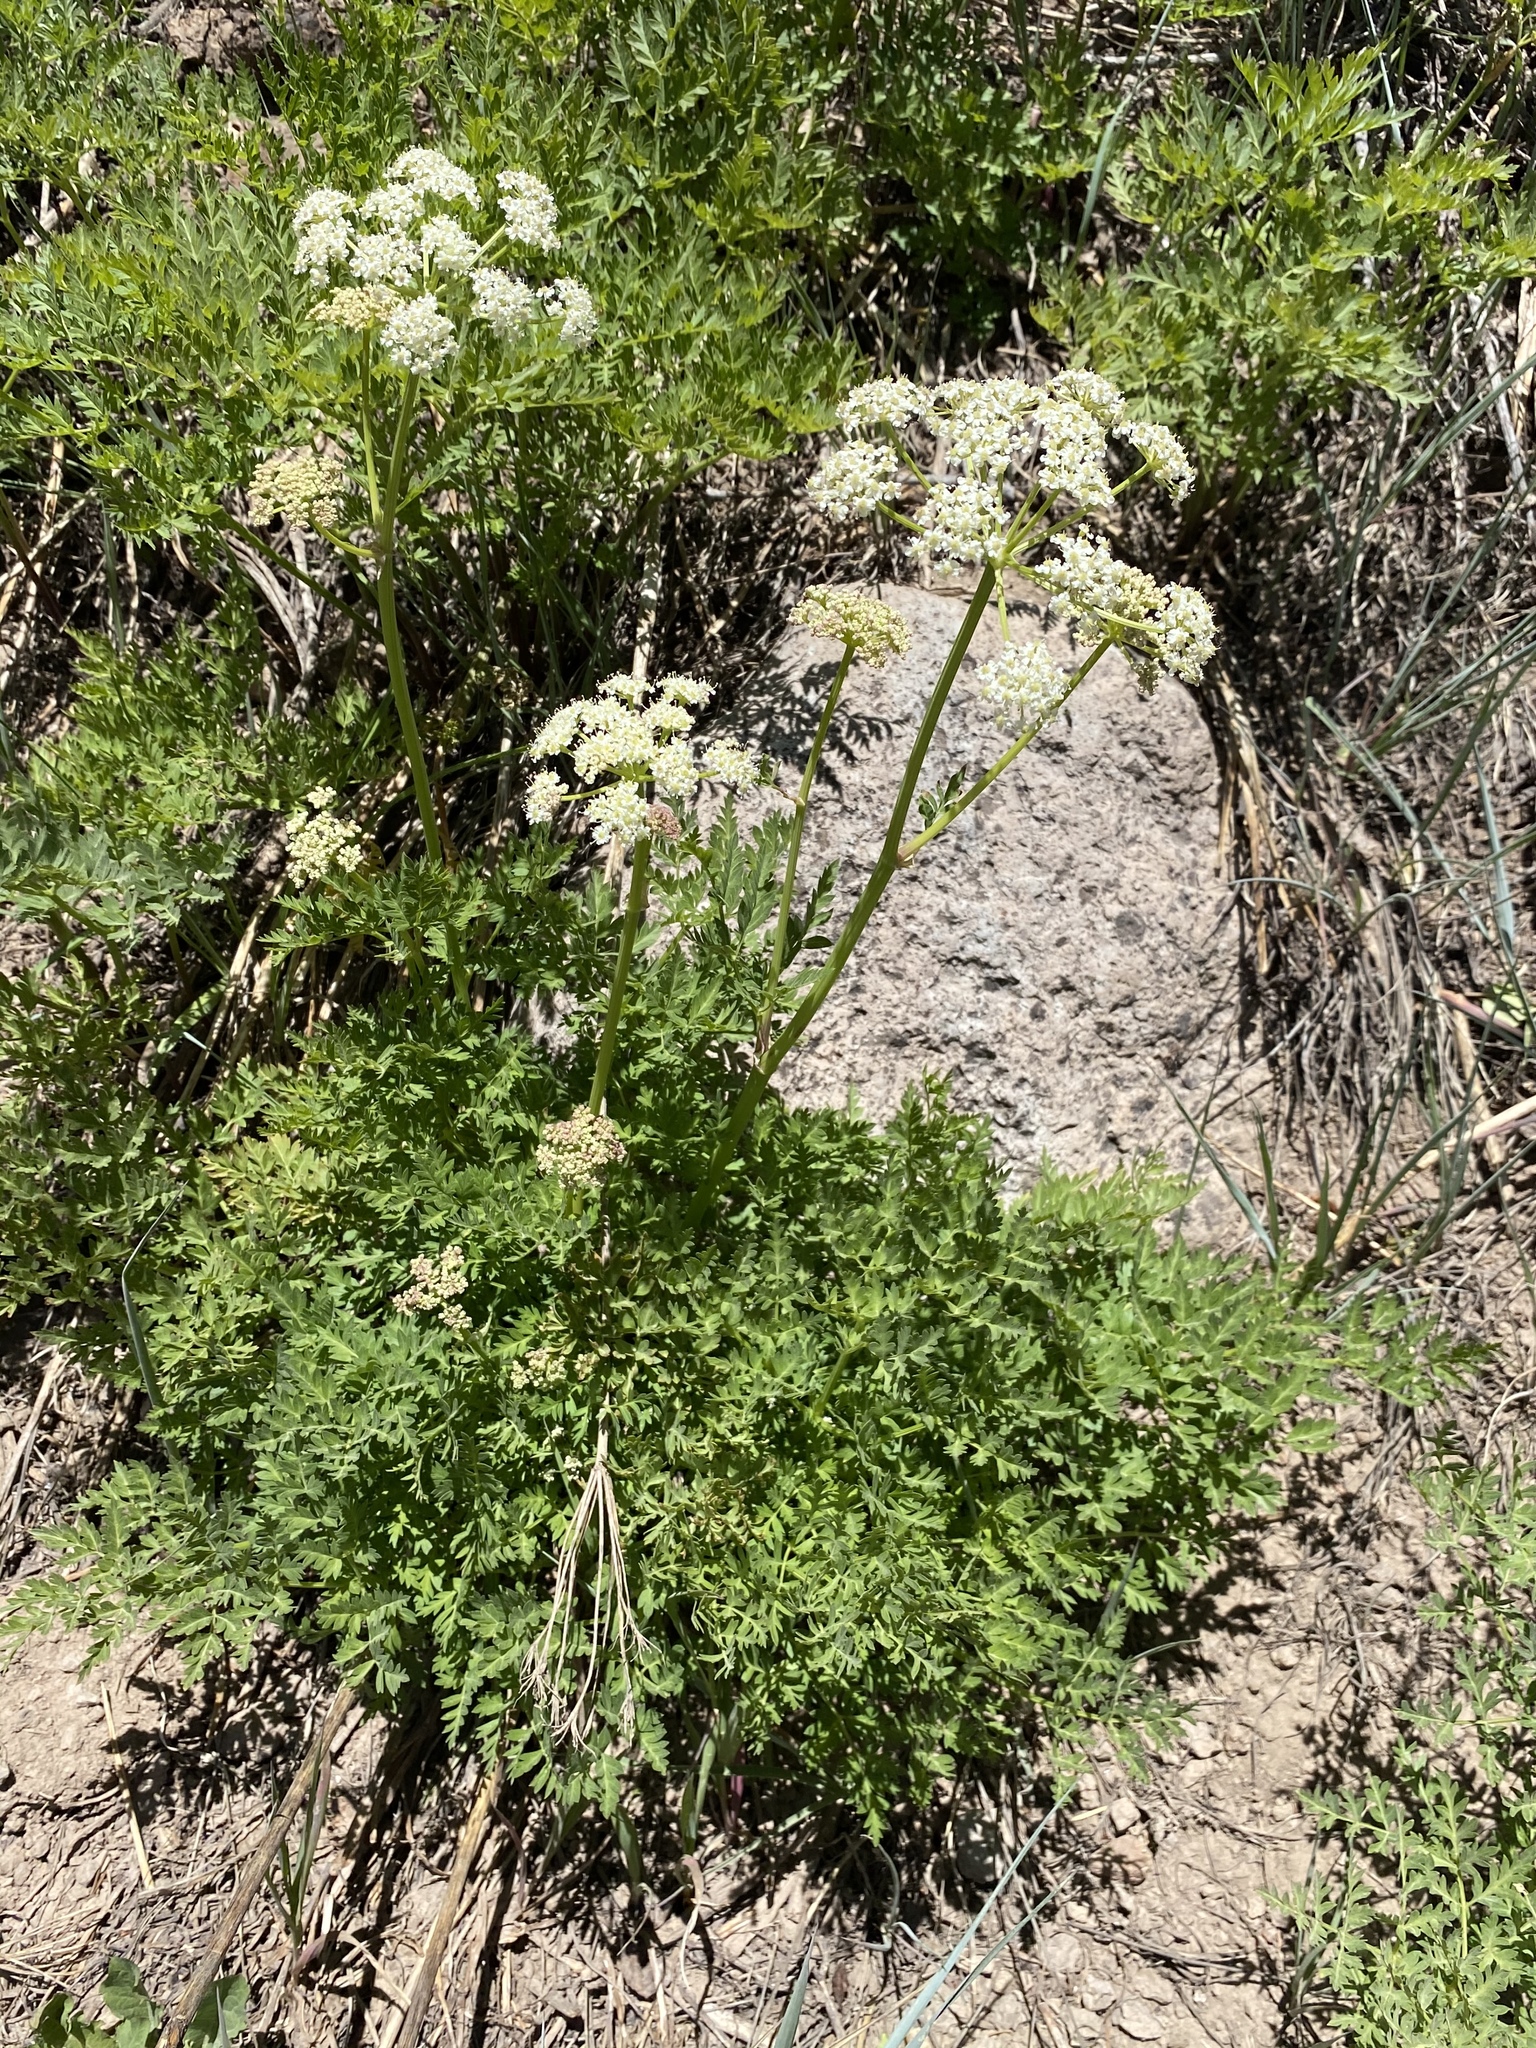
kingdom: Plantae
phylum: Tracheophyta
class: Magnoliopsida
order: Apiales
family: Apiaceae
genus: Ligusticum
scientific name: Ligusticum porteri
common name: Mountain lovage
